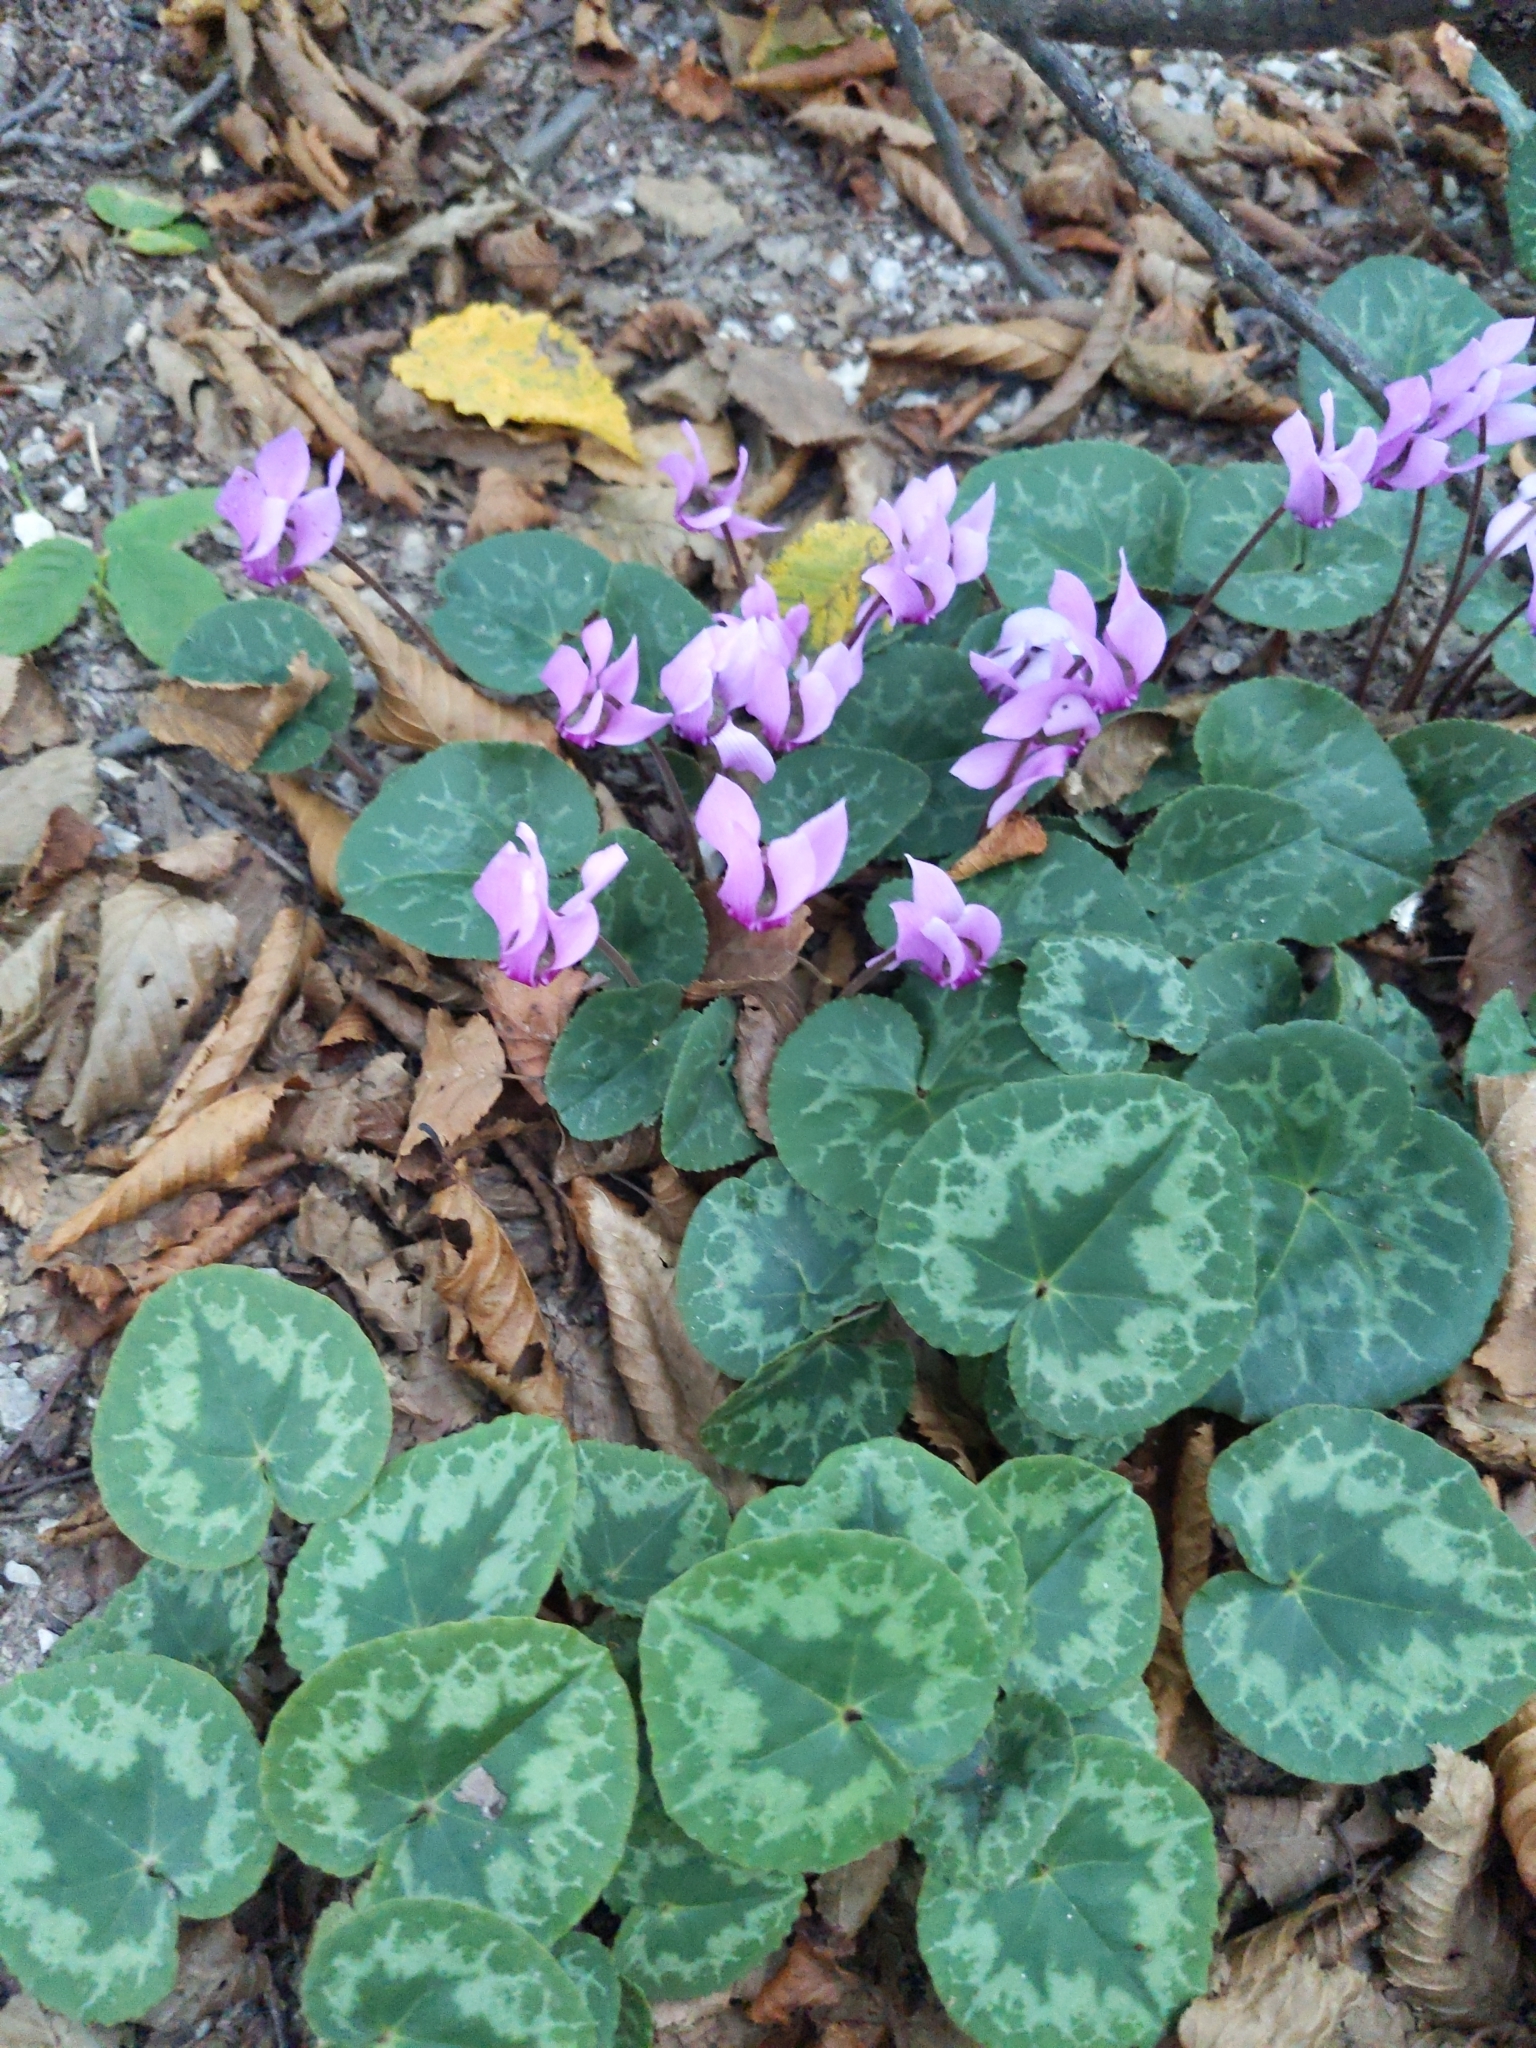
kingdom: Plantae
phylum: Tracheophyta
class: Magnoliopsida
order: Ericales
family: Primulaceae
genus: Cyclamen
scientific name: Cyclamen purpurascens
